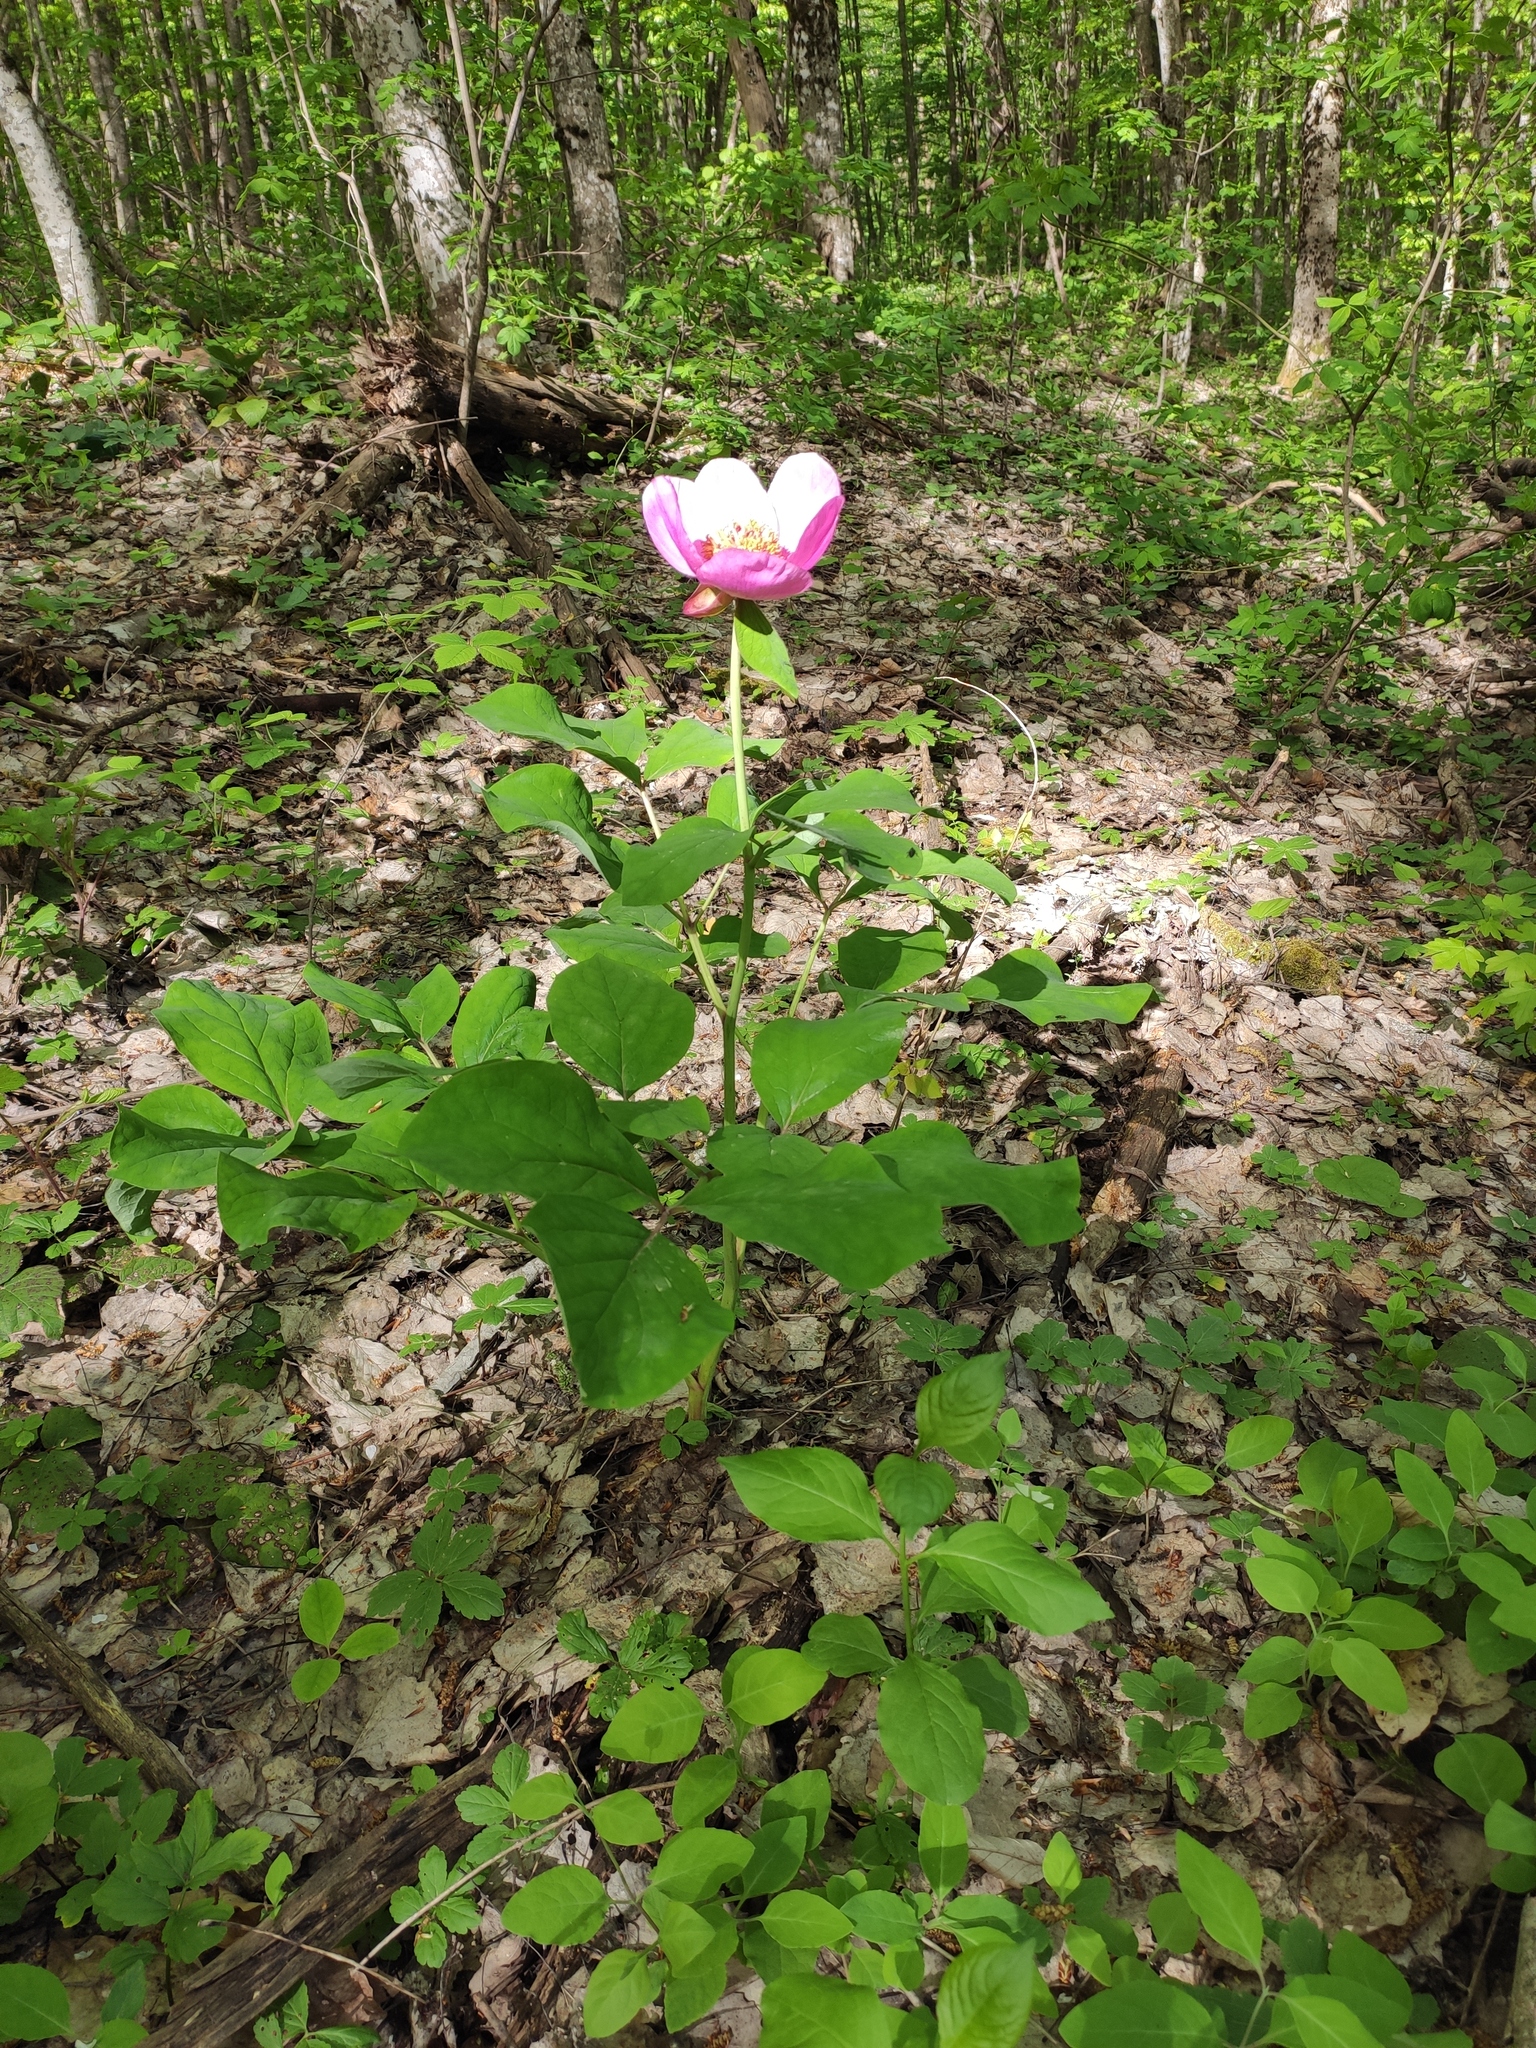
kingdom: Plantae
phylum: Tracheophyta
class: Magnoliopsida
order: Saxifragales
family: Paeoniaceae
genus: Paeonia
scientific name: Paeonia caucasica
